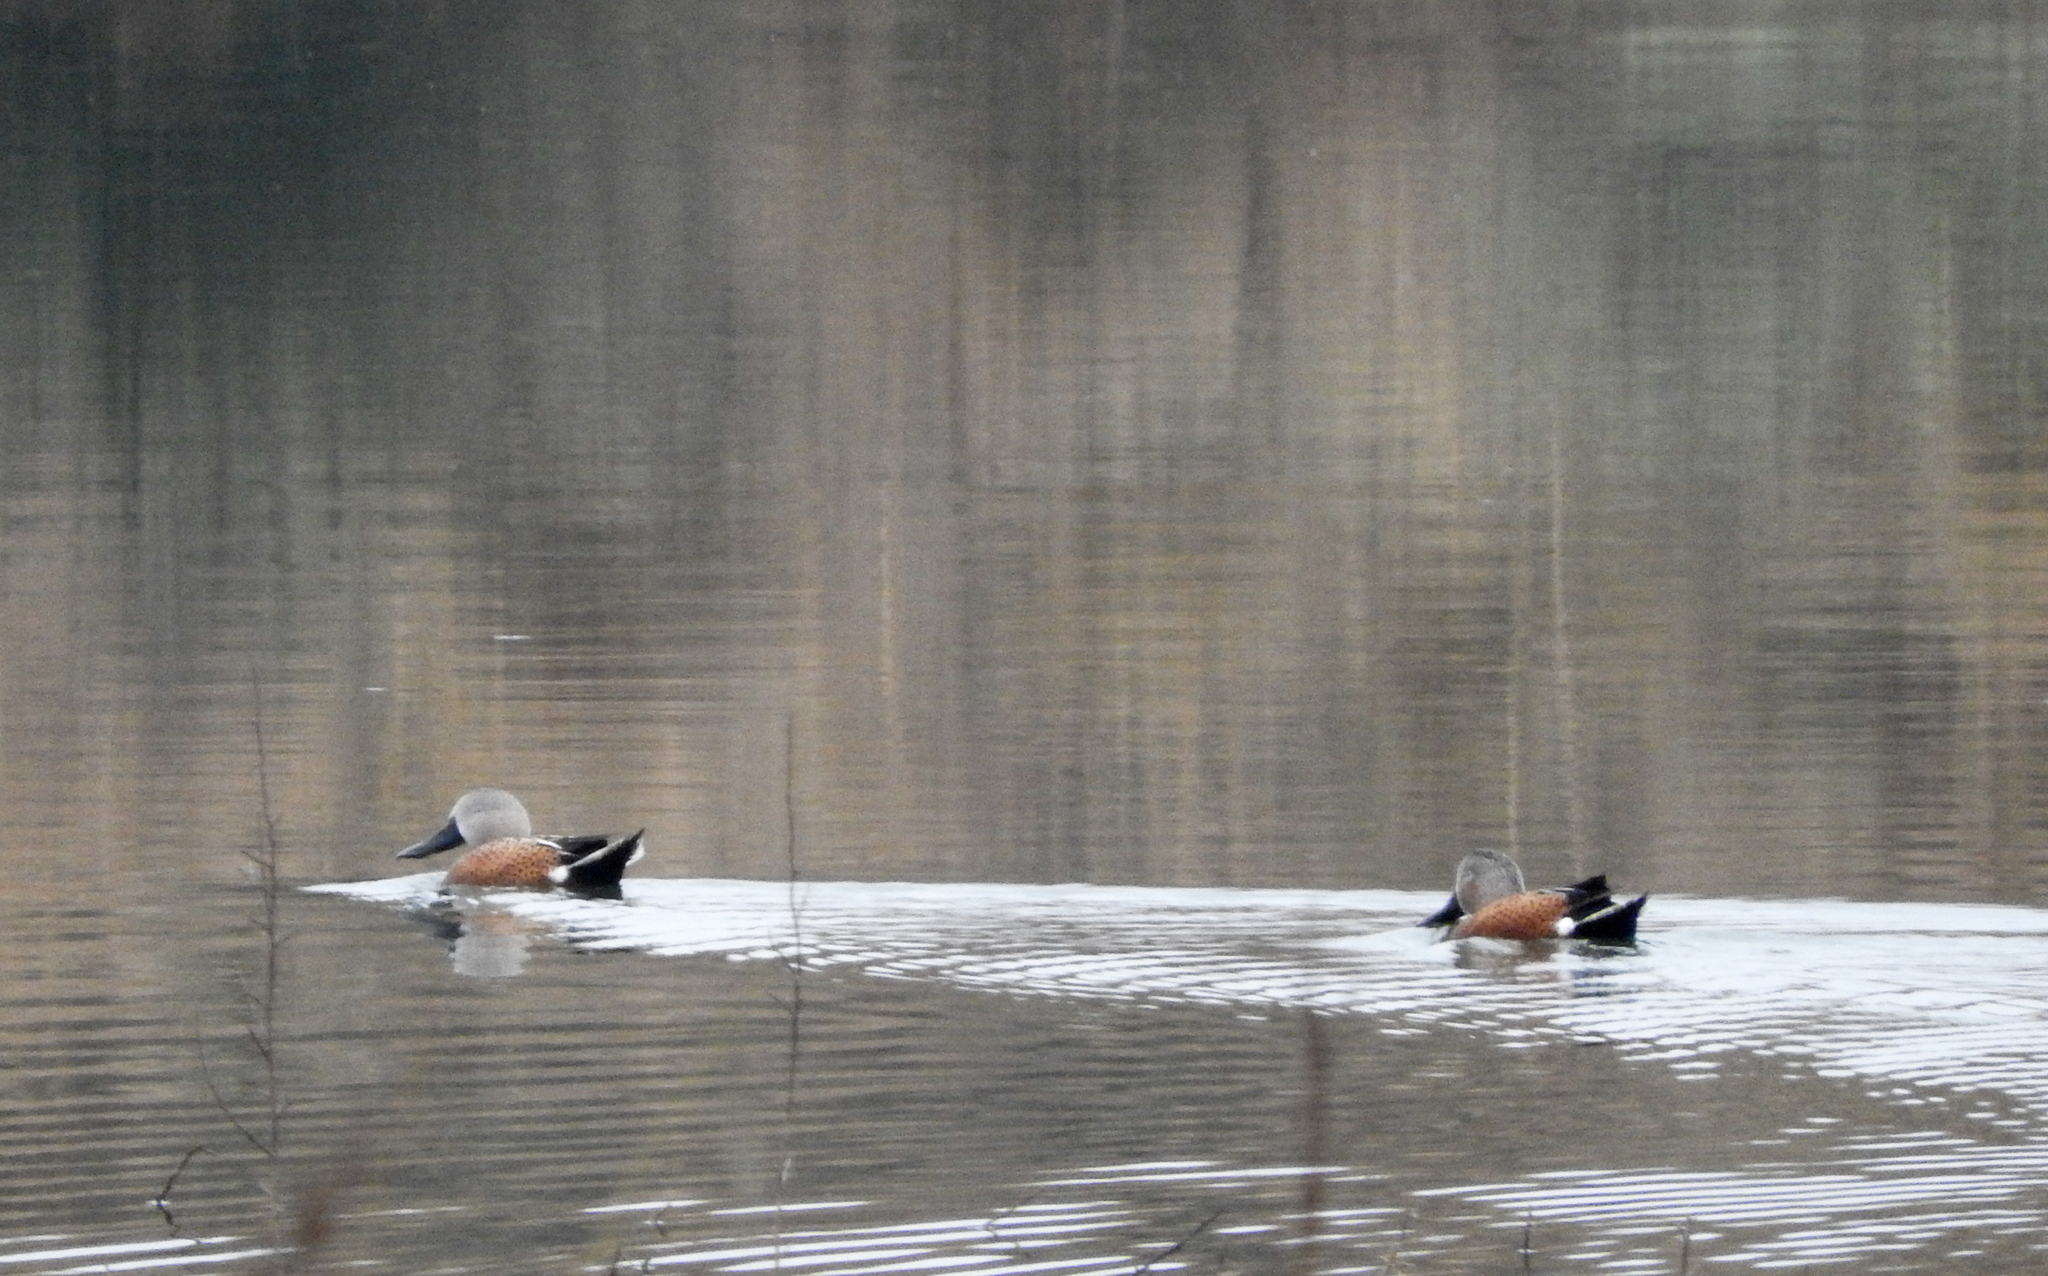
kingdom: Animalia
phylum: Chordata
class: Aves
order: Anseriformes
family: Anatidae
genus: Spatula
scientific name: Spatula platalea
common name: Red shoveler
